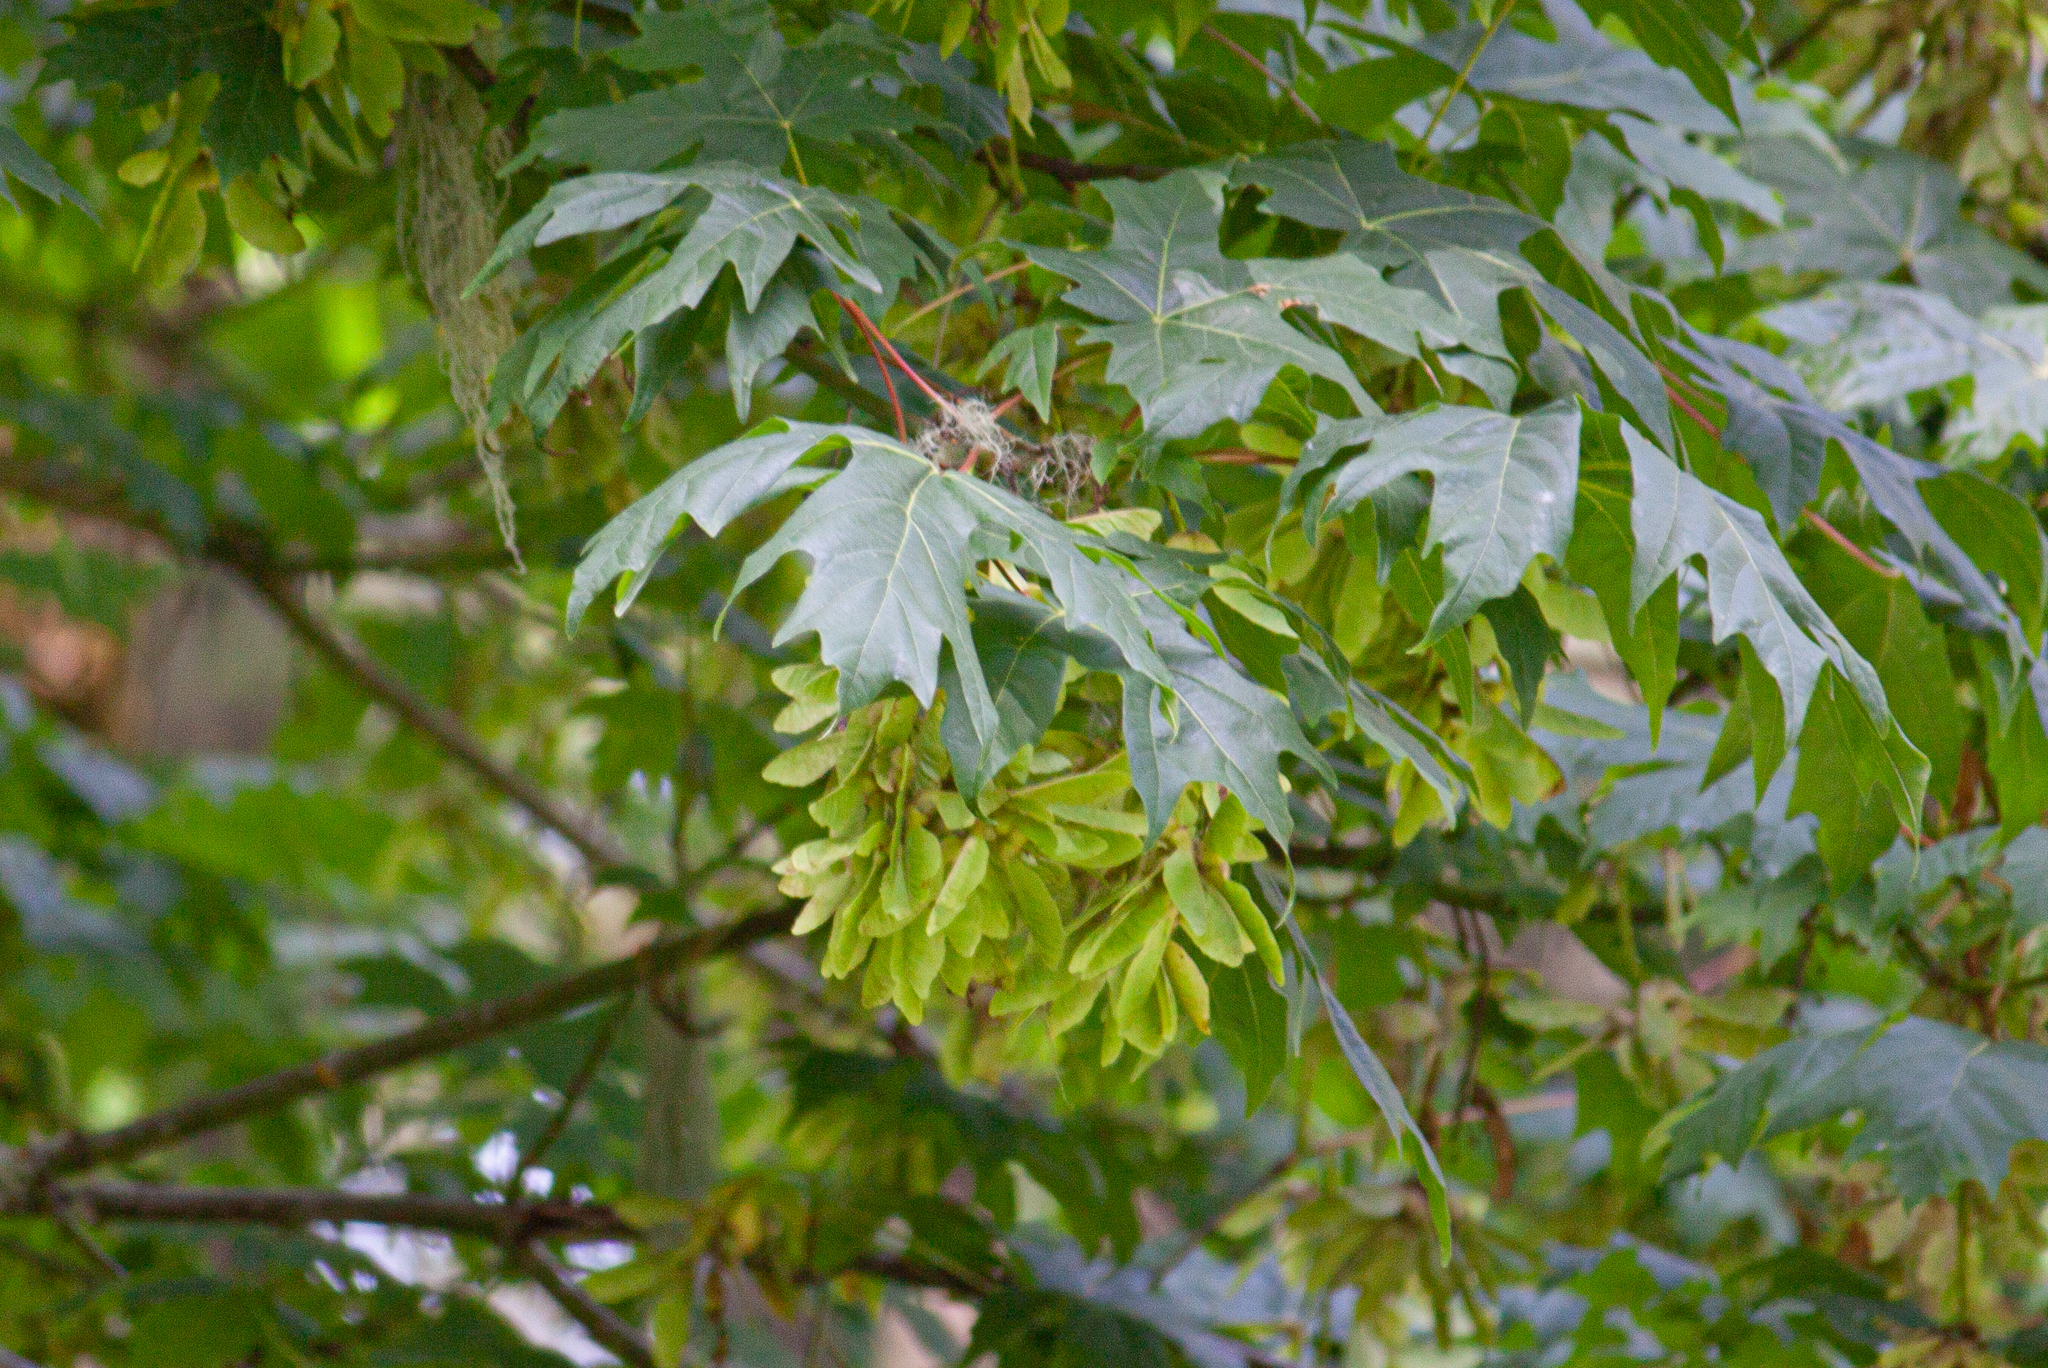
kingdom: Plantae
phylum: Tracheophyta
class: Magnoliopsida
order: Sapindales
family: Sapindaceae
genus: Acer
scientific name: Acer macrophyllum
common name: Oregon maple
